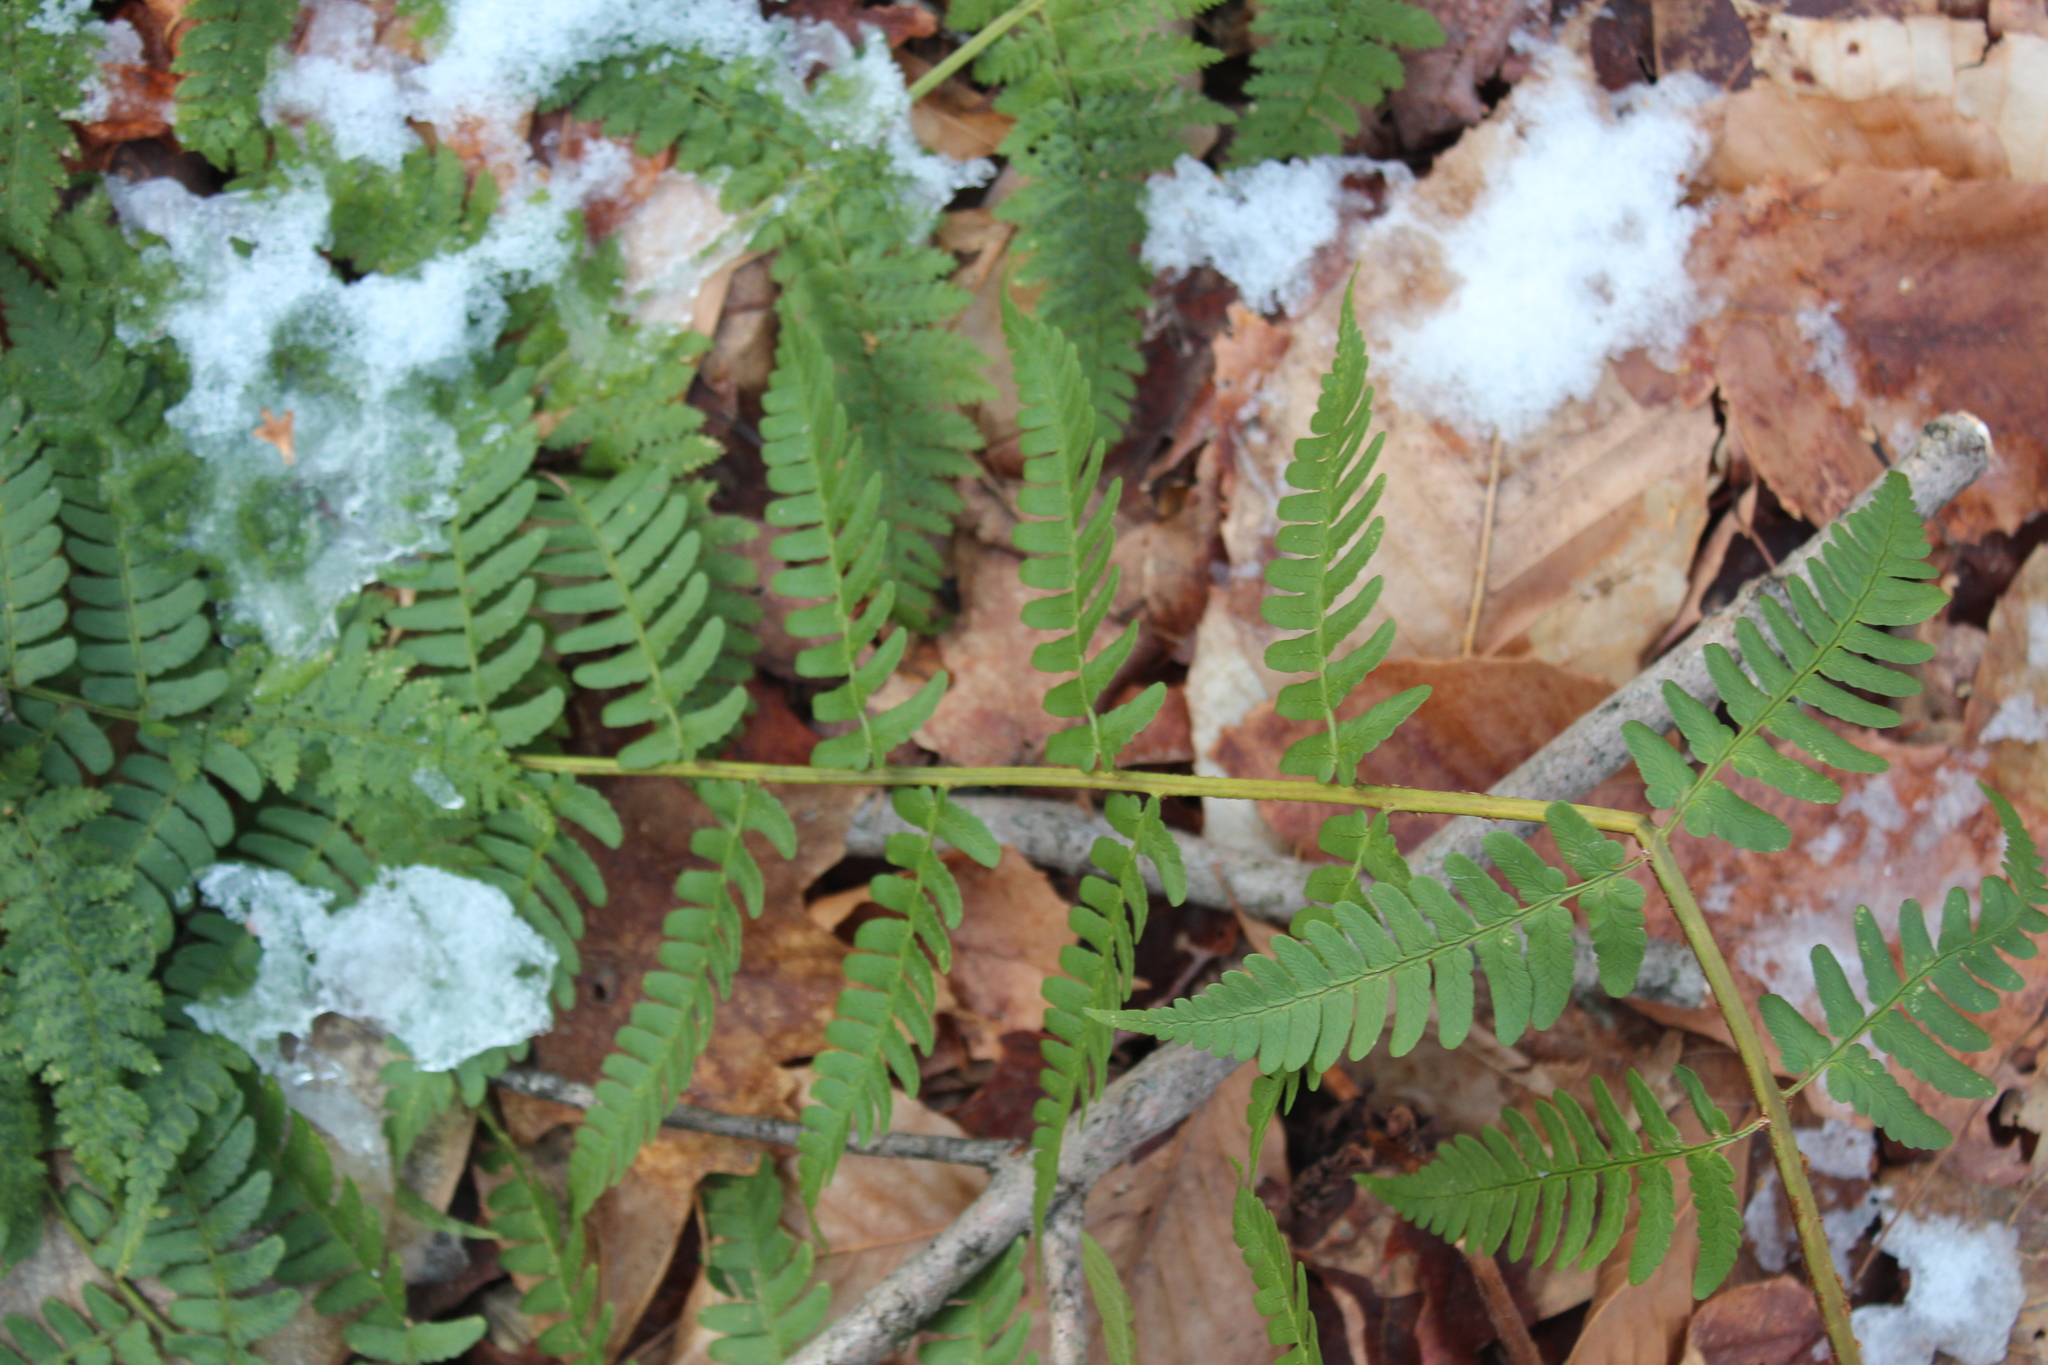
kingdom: Plantae
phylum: Tracheophyta
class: Polypodiopsida
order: Polypodiales
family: Dryopteridaceae
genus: Dryopteris
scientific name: Dryopteris marginalis
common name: Marginal wood fern
